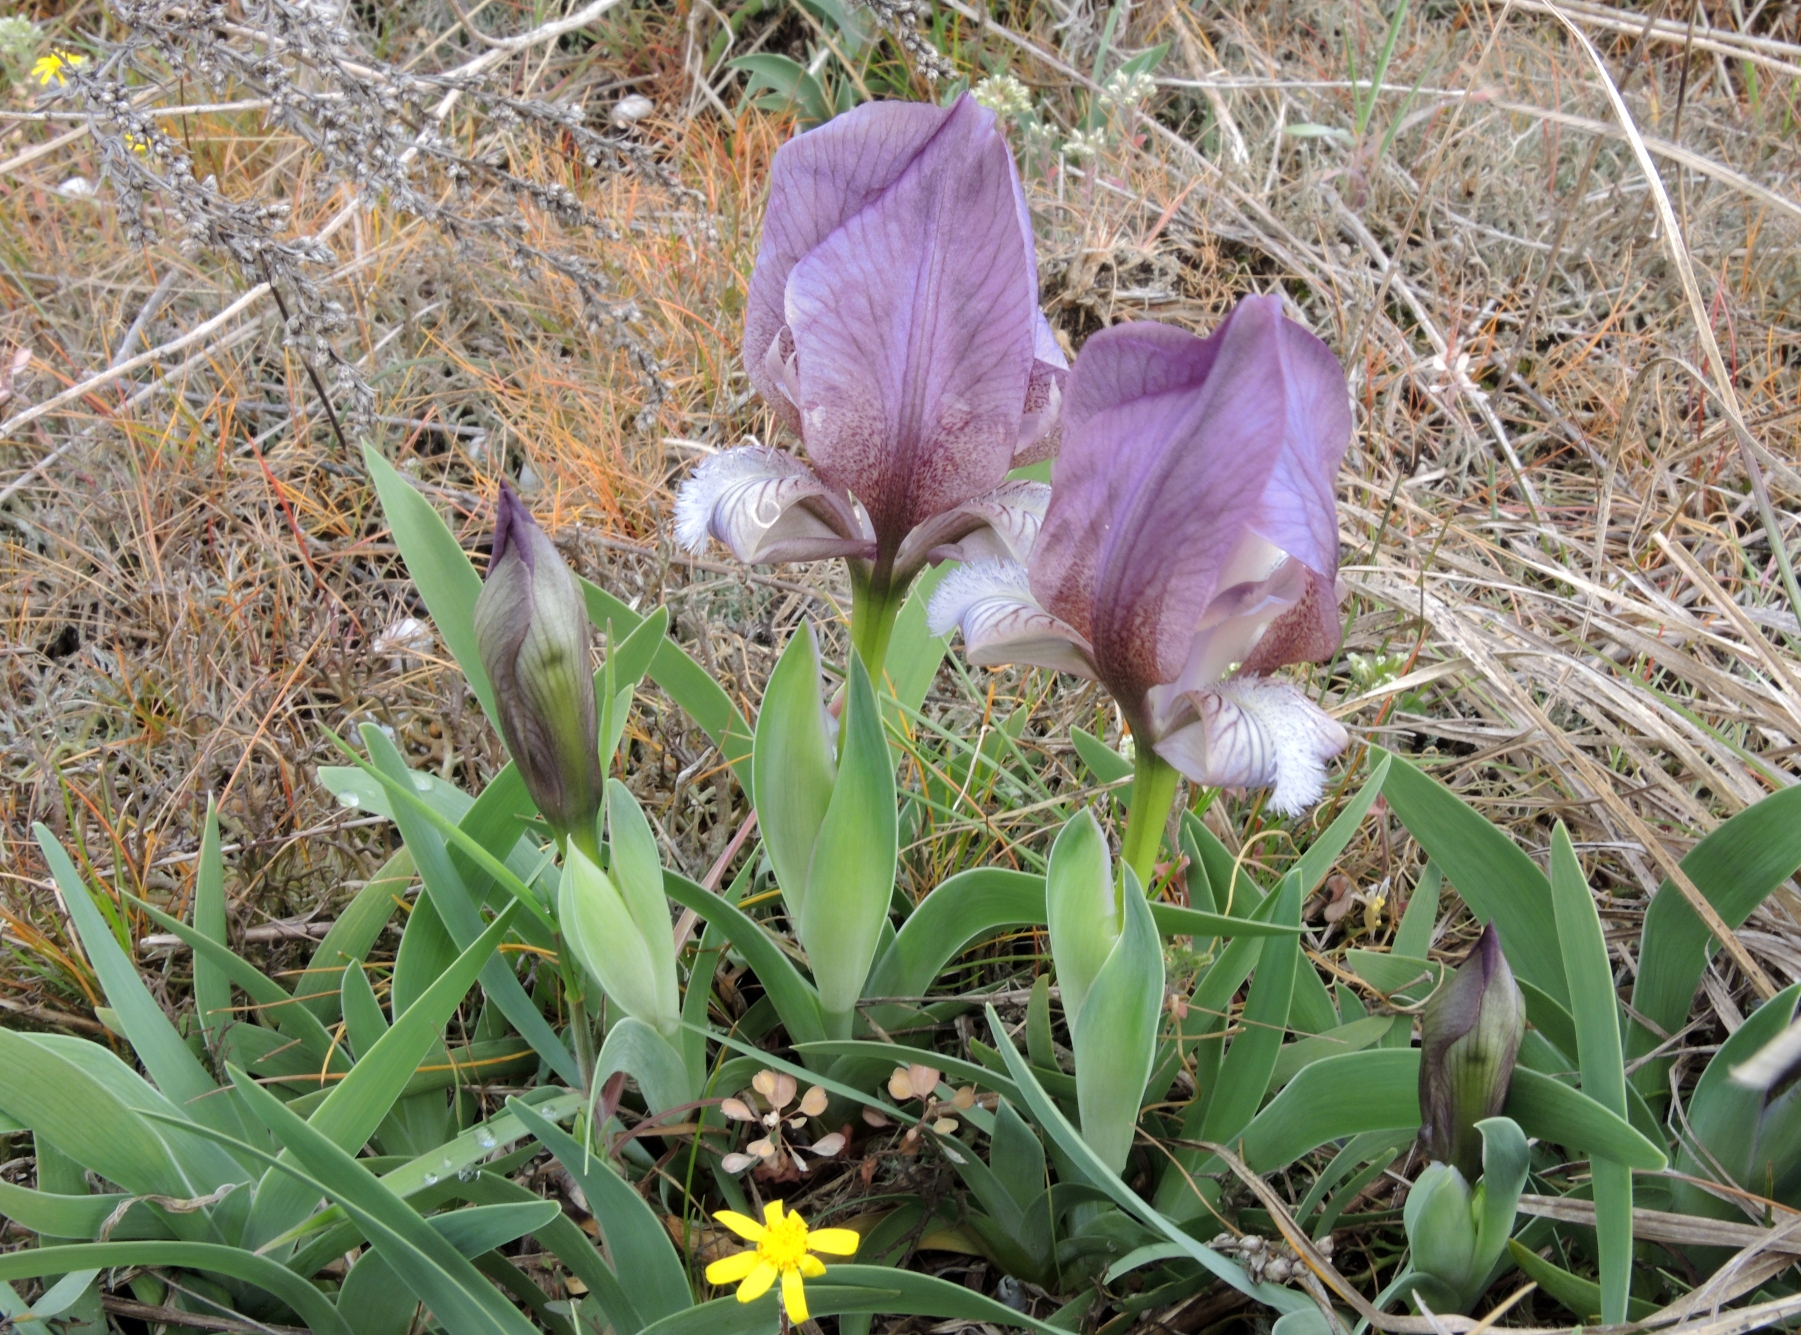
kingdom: Plantae
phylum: Tracheophyta
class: Liliopsida
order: Asparagales
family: Iridaceae
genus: Iris
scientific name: Iris suaveolens
